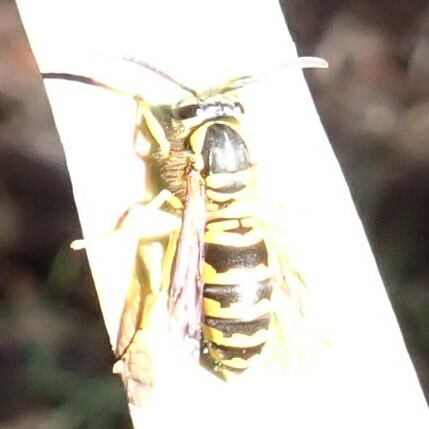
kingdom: Animalia
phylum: Arthropoda
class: Insecta
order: Hymenoptera
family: Vespidae
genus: Vespula
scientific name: Vespula maculifrons
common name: Eastern yellowjacket
